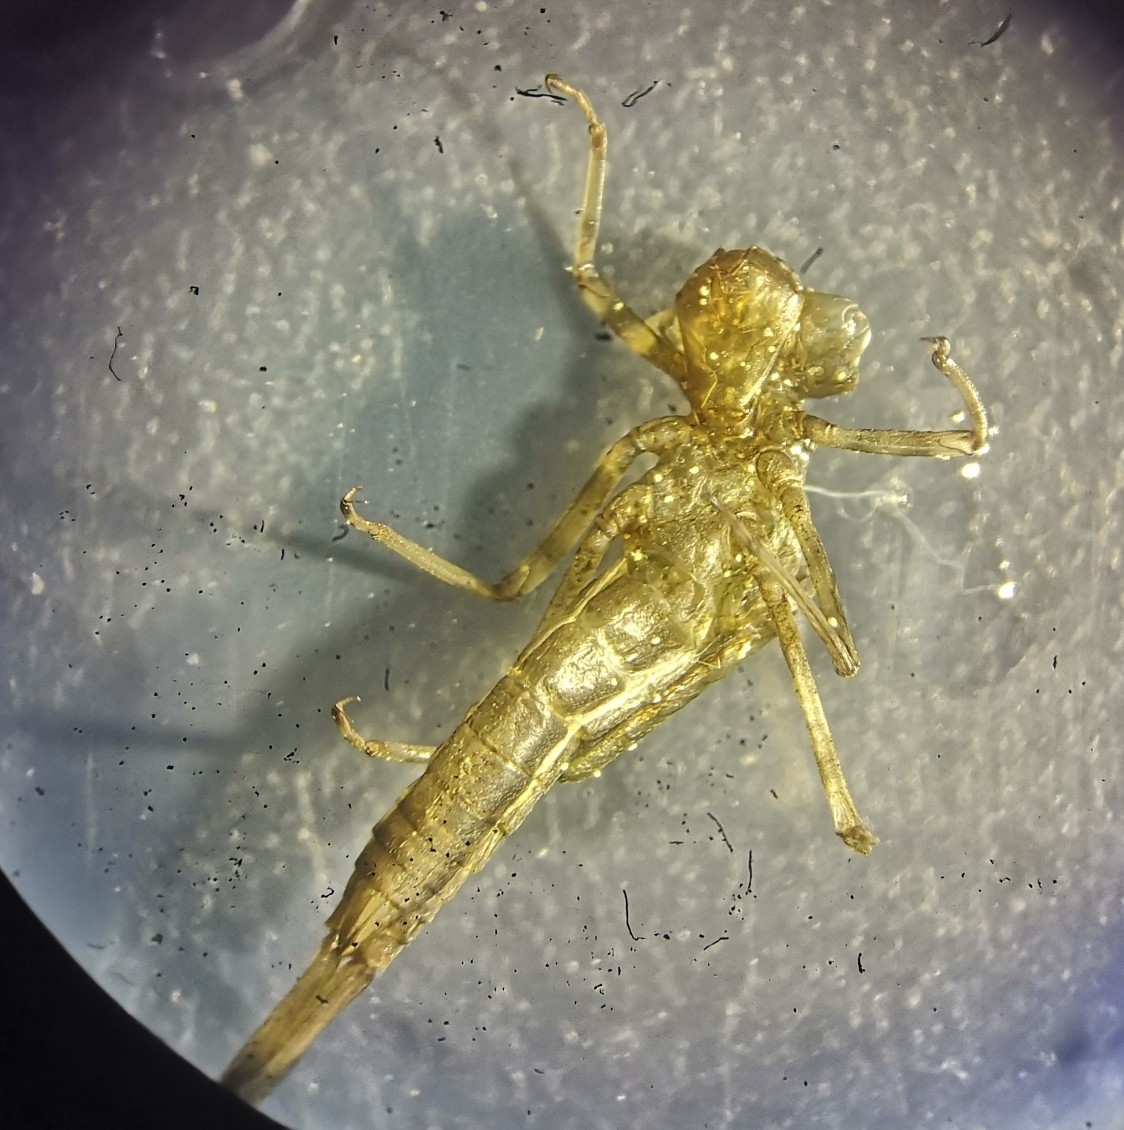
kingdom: Animalia
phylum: Arthropoda
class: Insecta
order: Odonata
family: Coenagrionidae
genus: Pyrrhosoma
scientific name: Pyrrhosoma nymphula
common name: Large red damsel
